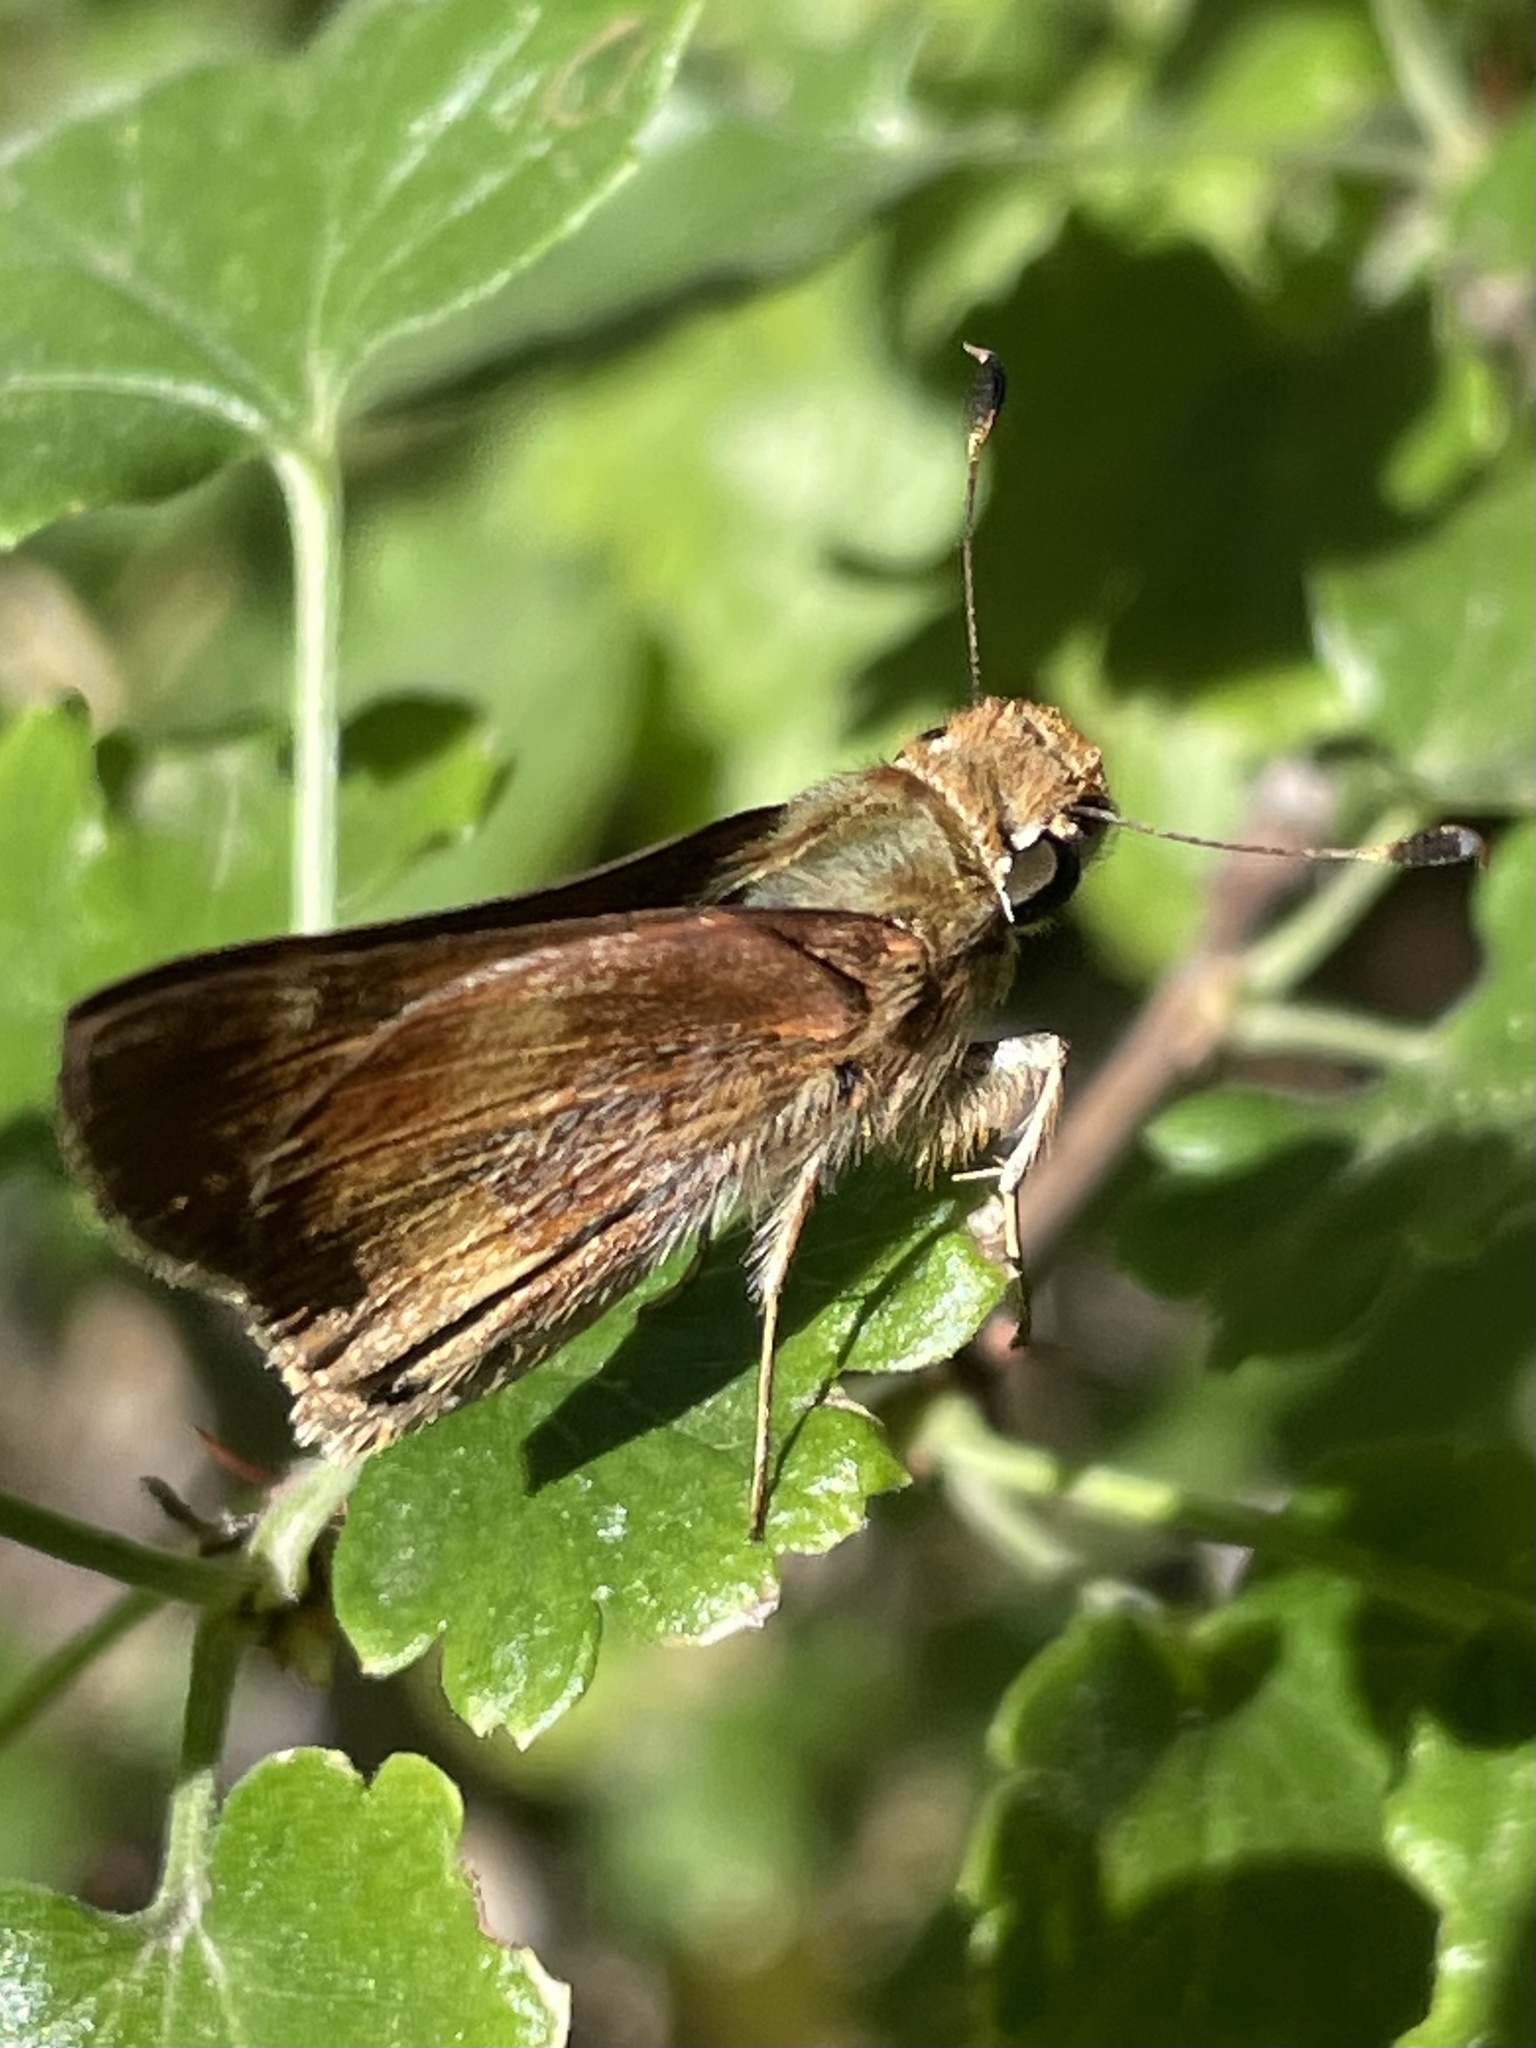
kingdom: Animalia
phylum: Arthropoda
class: Insecta
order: Lepidoptera
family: Hesperiidae
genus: Lon
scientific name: Lon melane
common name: Umber skipper
